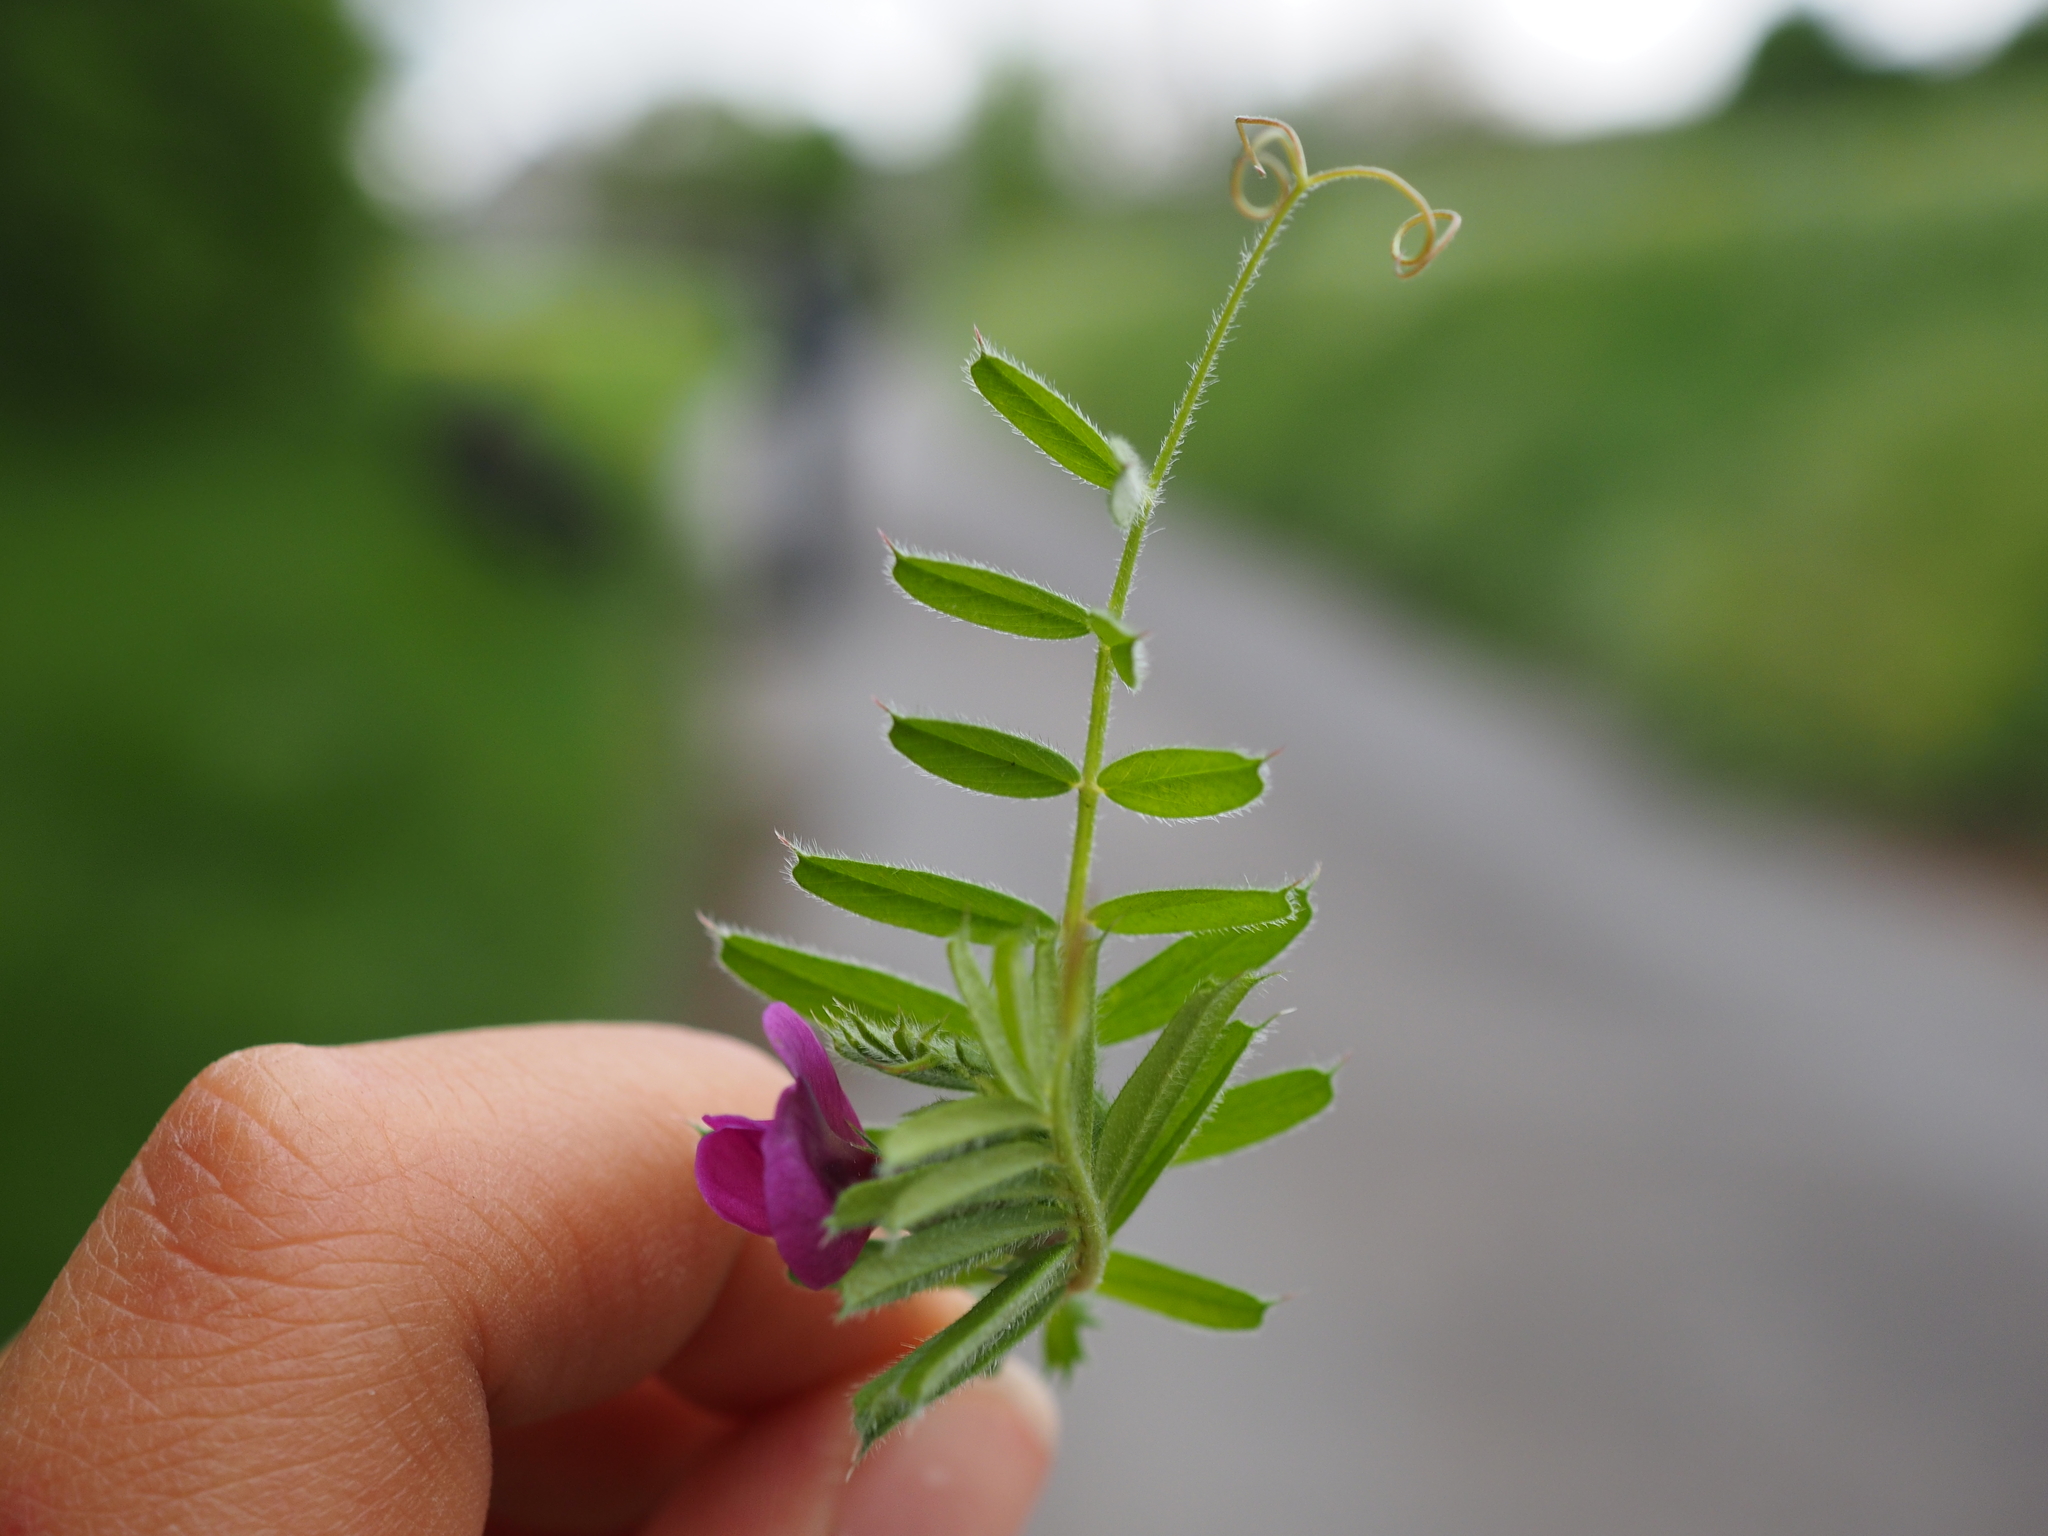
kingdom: Plantae
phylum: Tracheophyta
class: Magnoliopsida
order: Fabales
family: Fabaceae
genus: Vicia
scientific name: Vicia sativa
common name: Garden vetch
